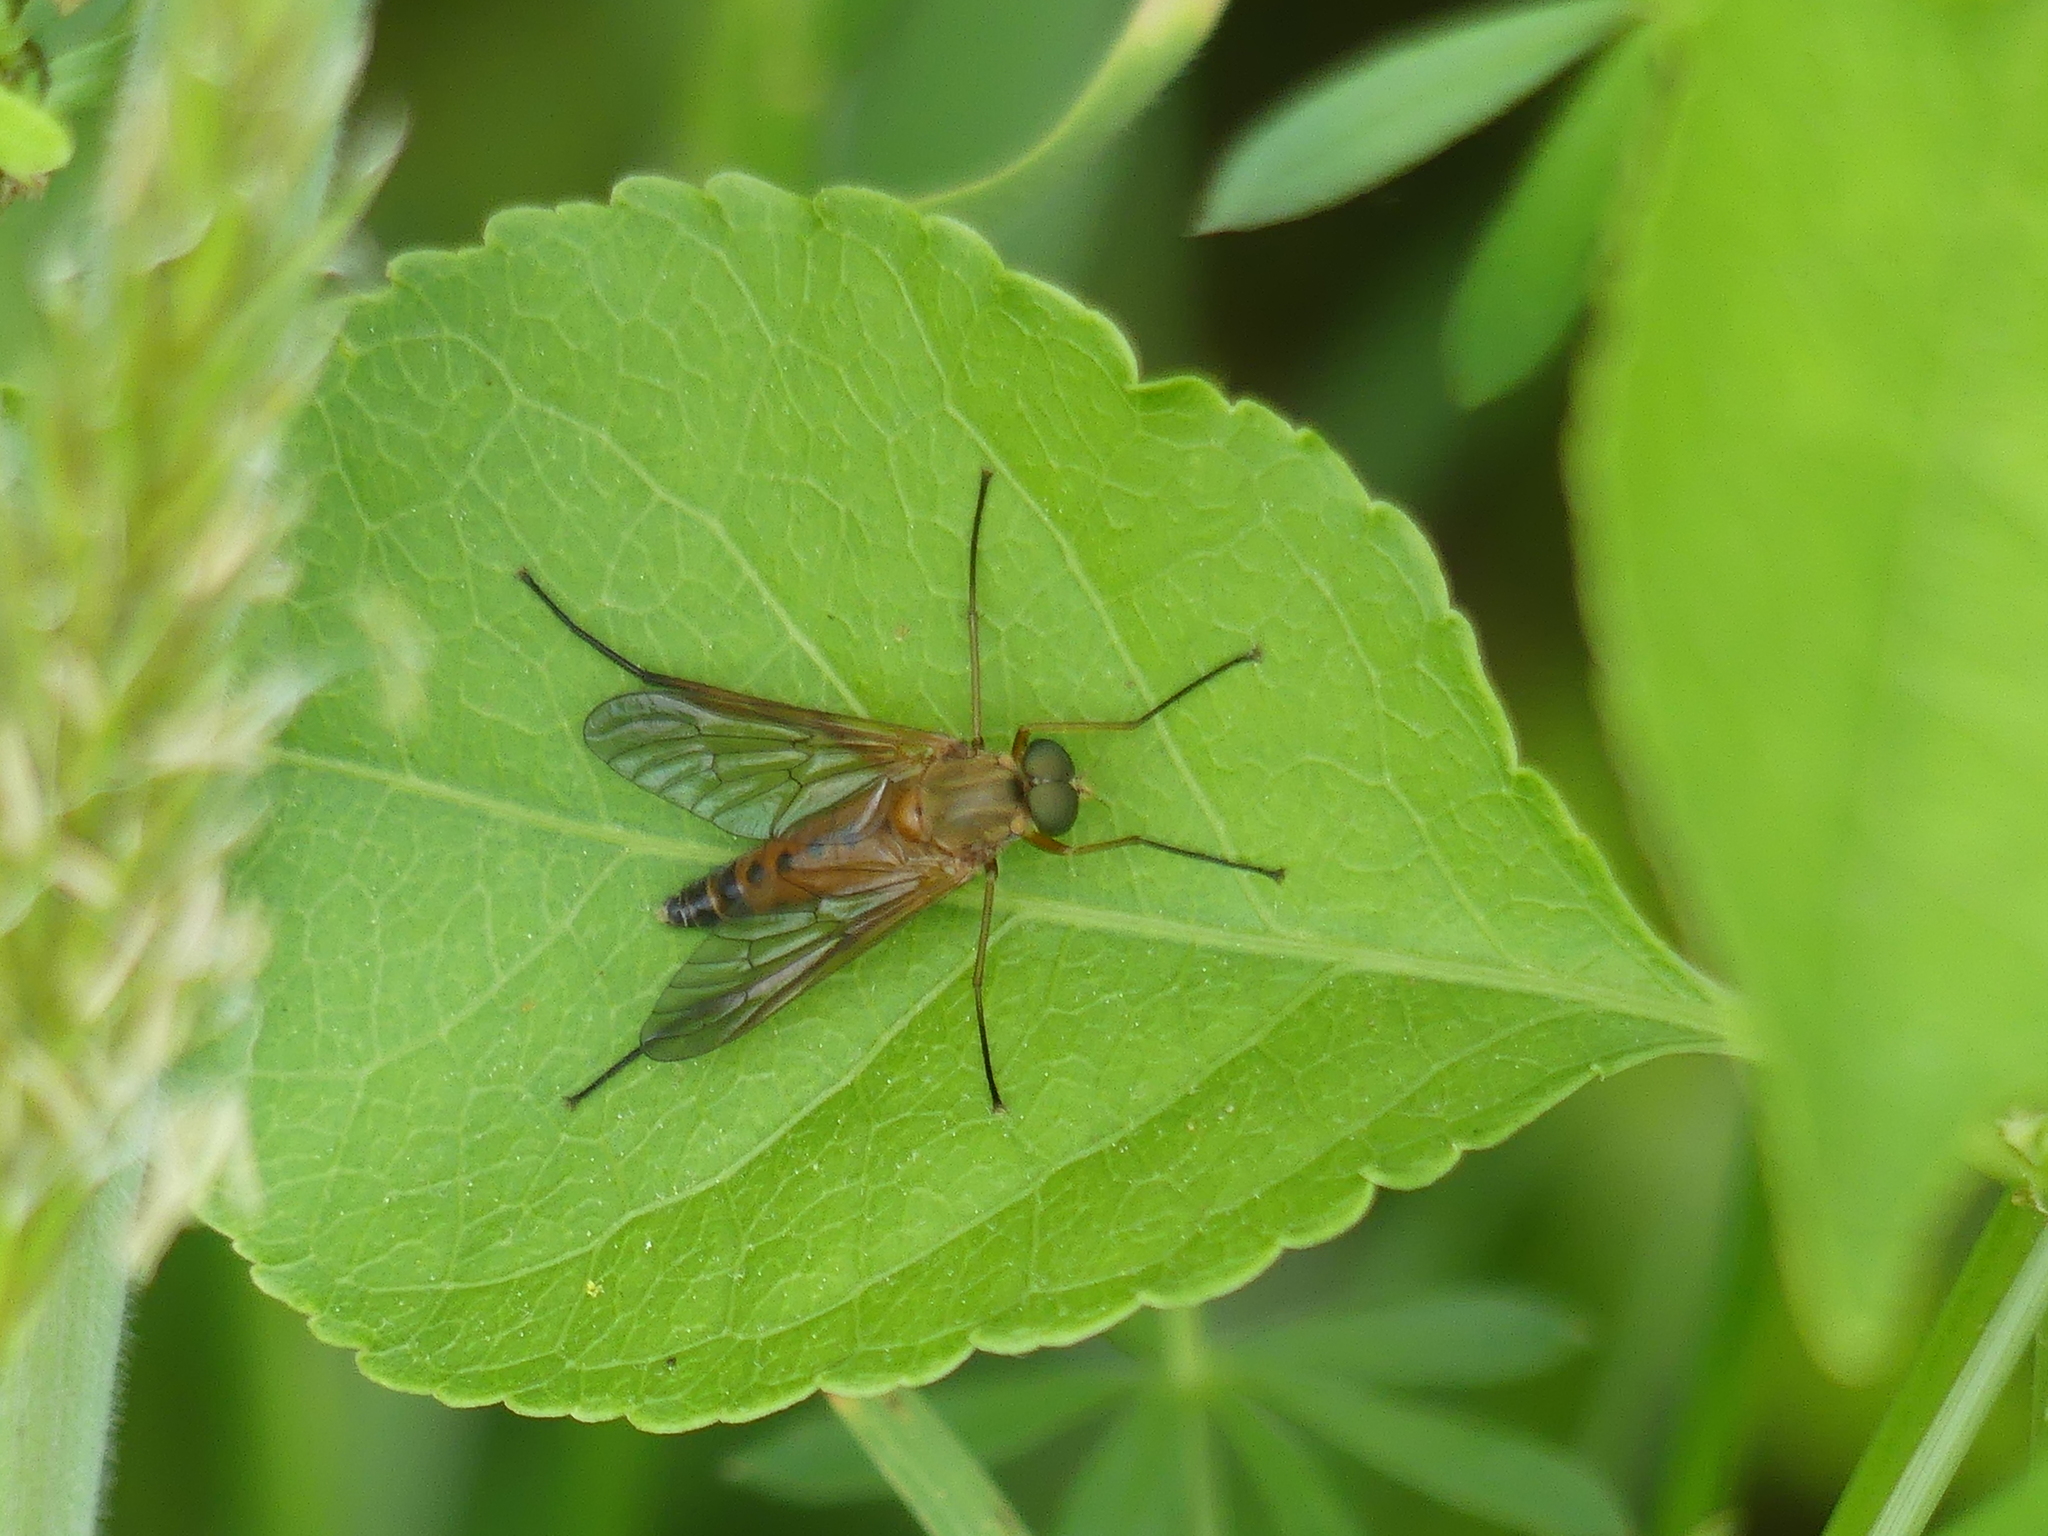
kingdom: Animalia
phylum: Arthropoda
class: Insecta
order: Diptera
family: Rhagionidae
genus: Rhagio
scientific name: Rhagio tringaria
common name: Marsh snipefly
